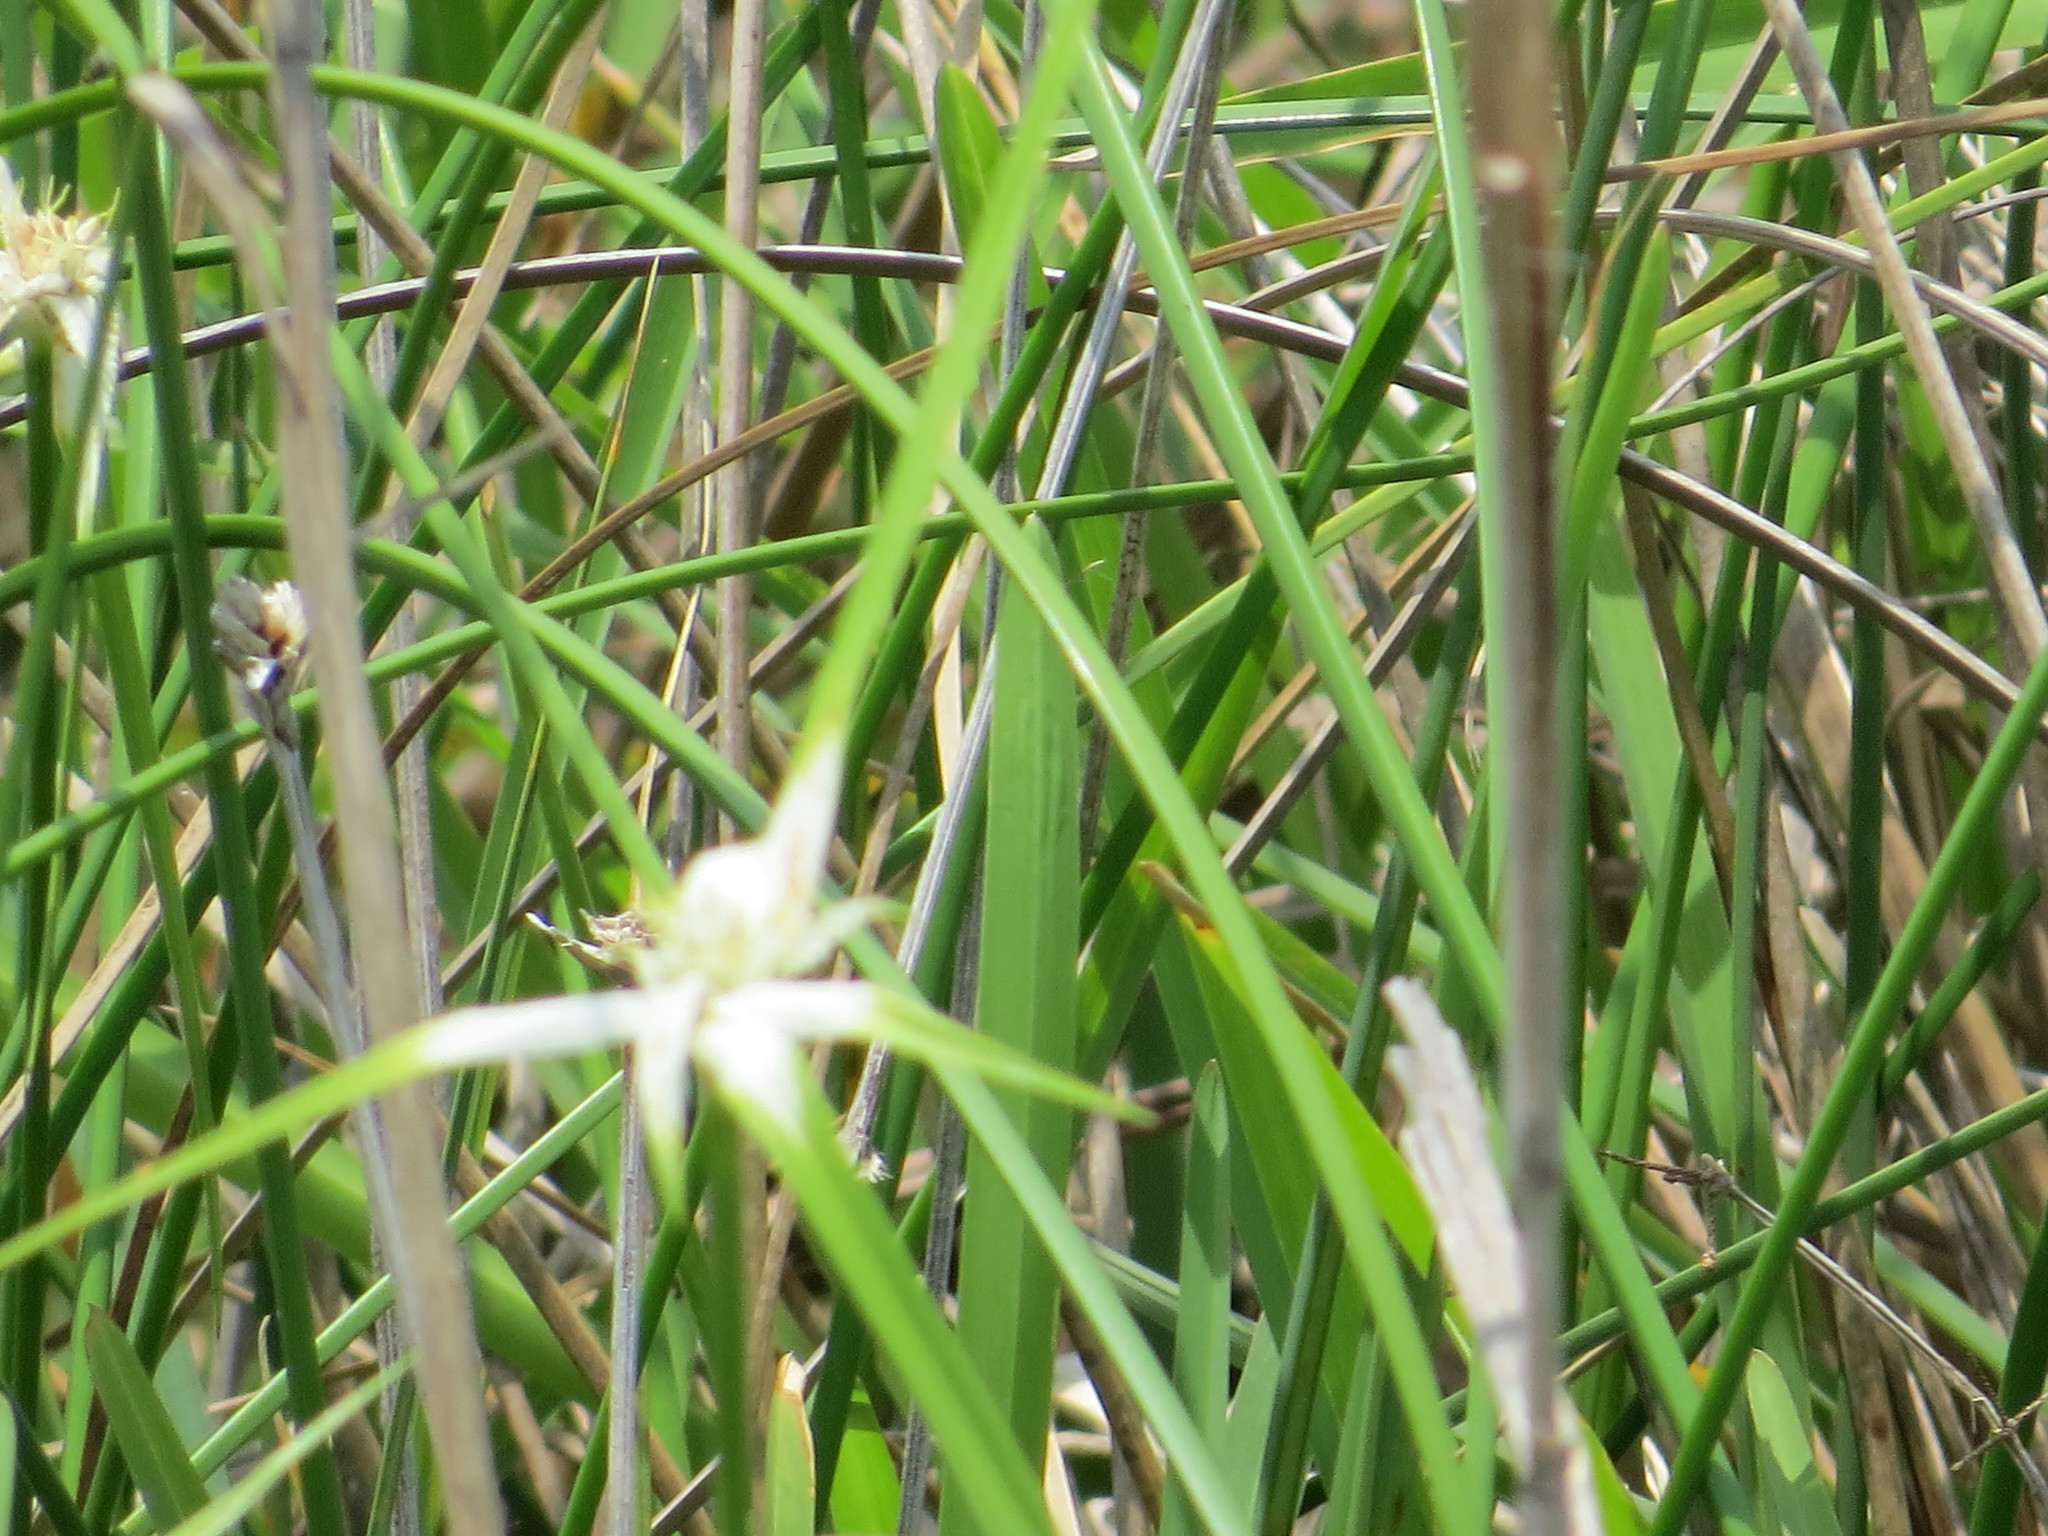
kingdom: Plantae
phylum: Tracheophyta
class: Liliopsida
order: Poales
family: Cyperaceae
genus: Rhynchospora
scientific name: Rhynchospora colorata
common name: Star sedge
